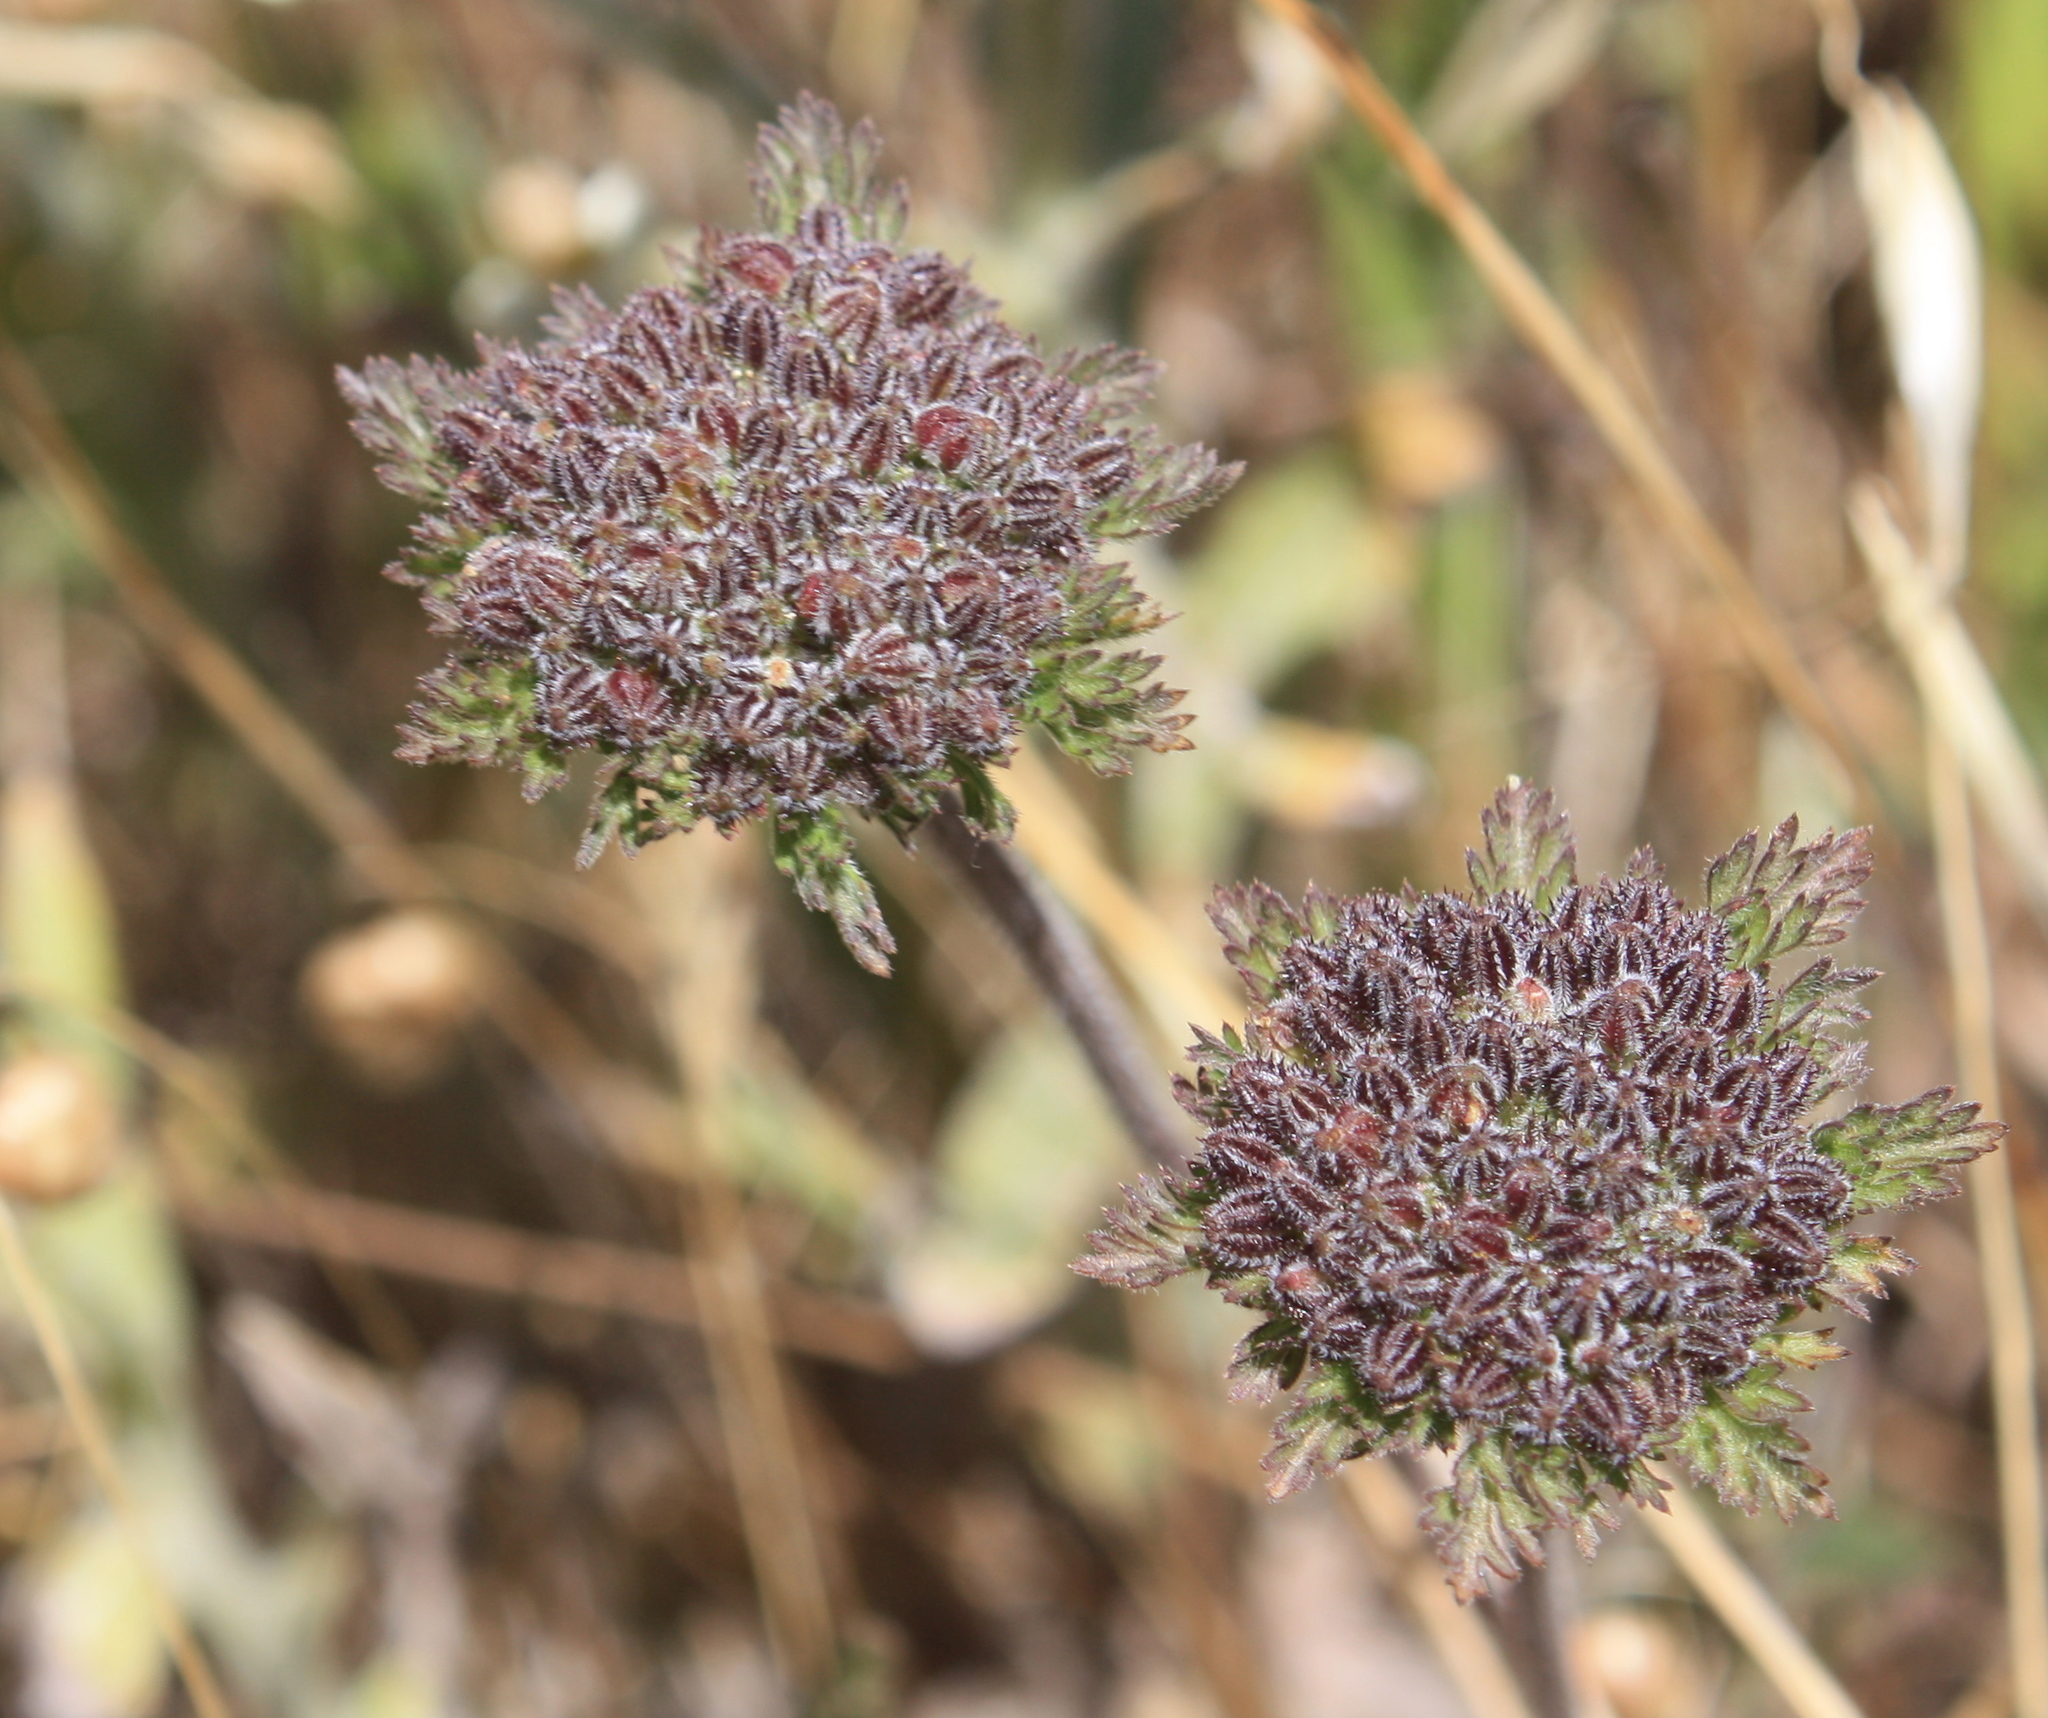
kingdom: Plantae
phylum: Tracheophyta
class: Magnoliopsida
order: Apiales
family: Apiaceae
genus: Daucus
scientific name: Daucus pusillus
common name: Southwest wild carrot
